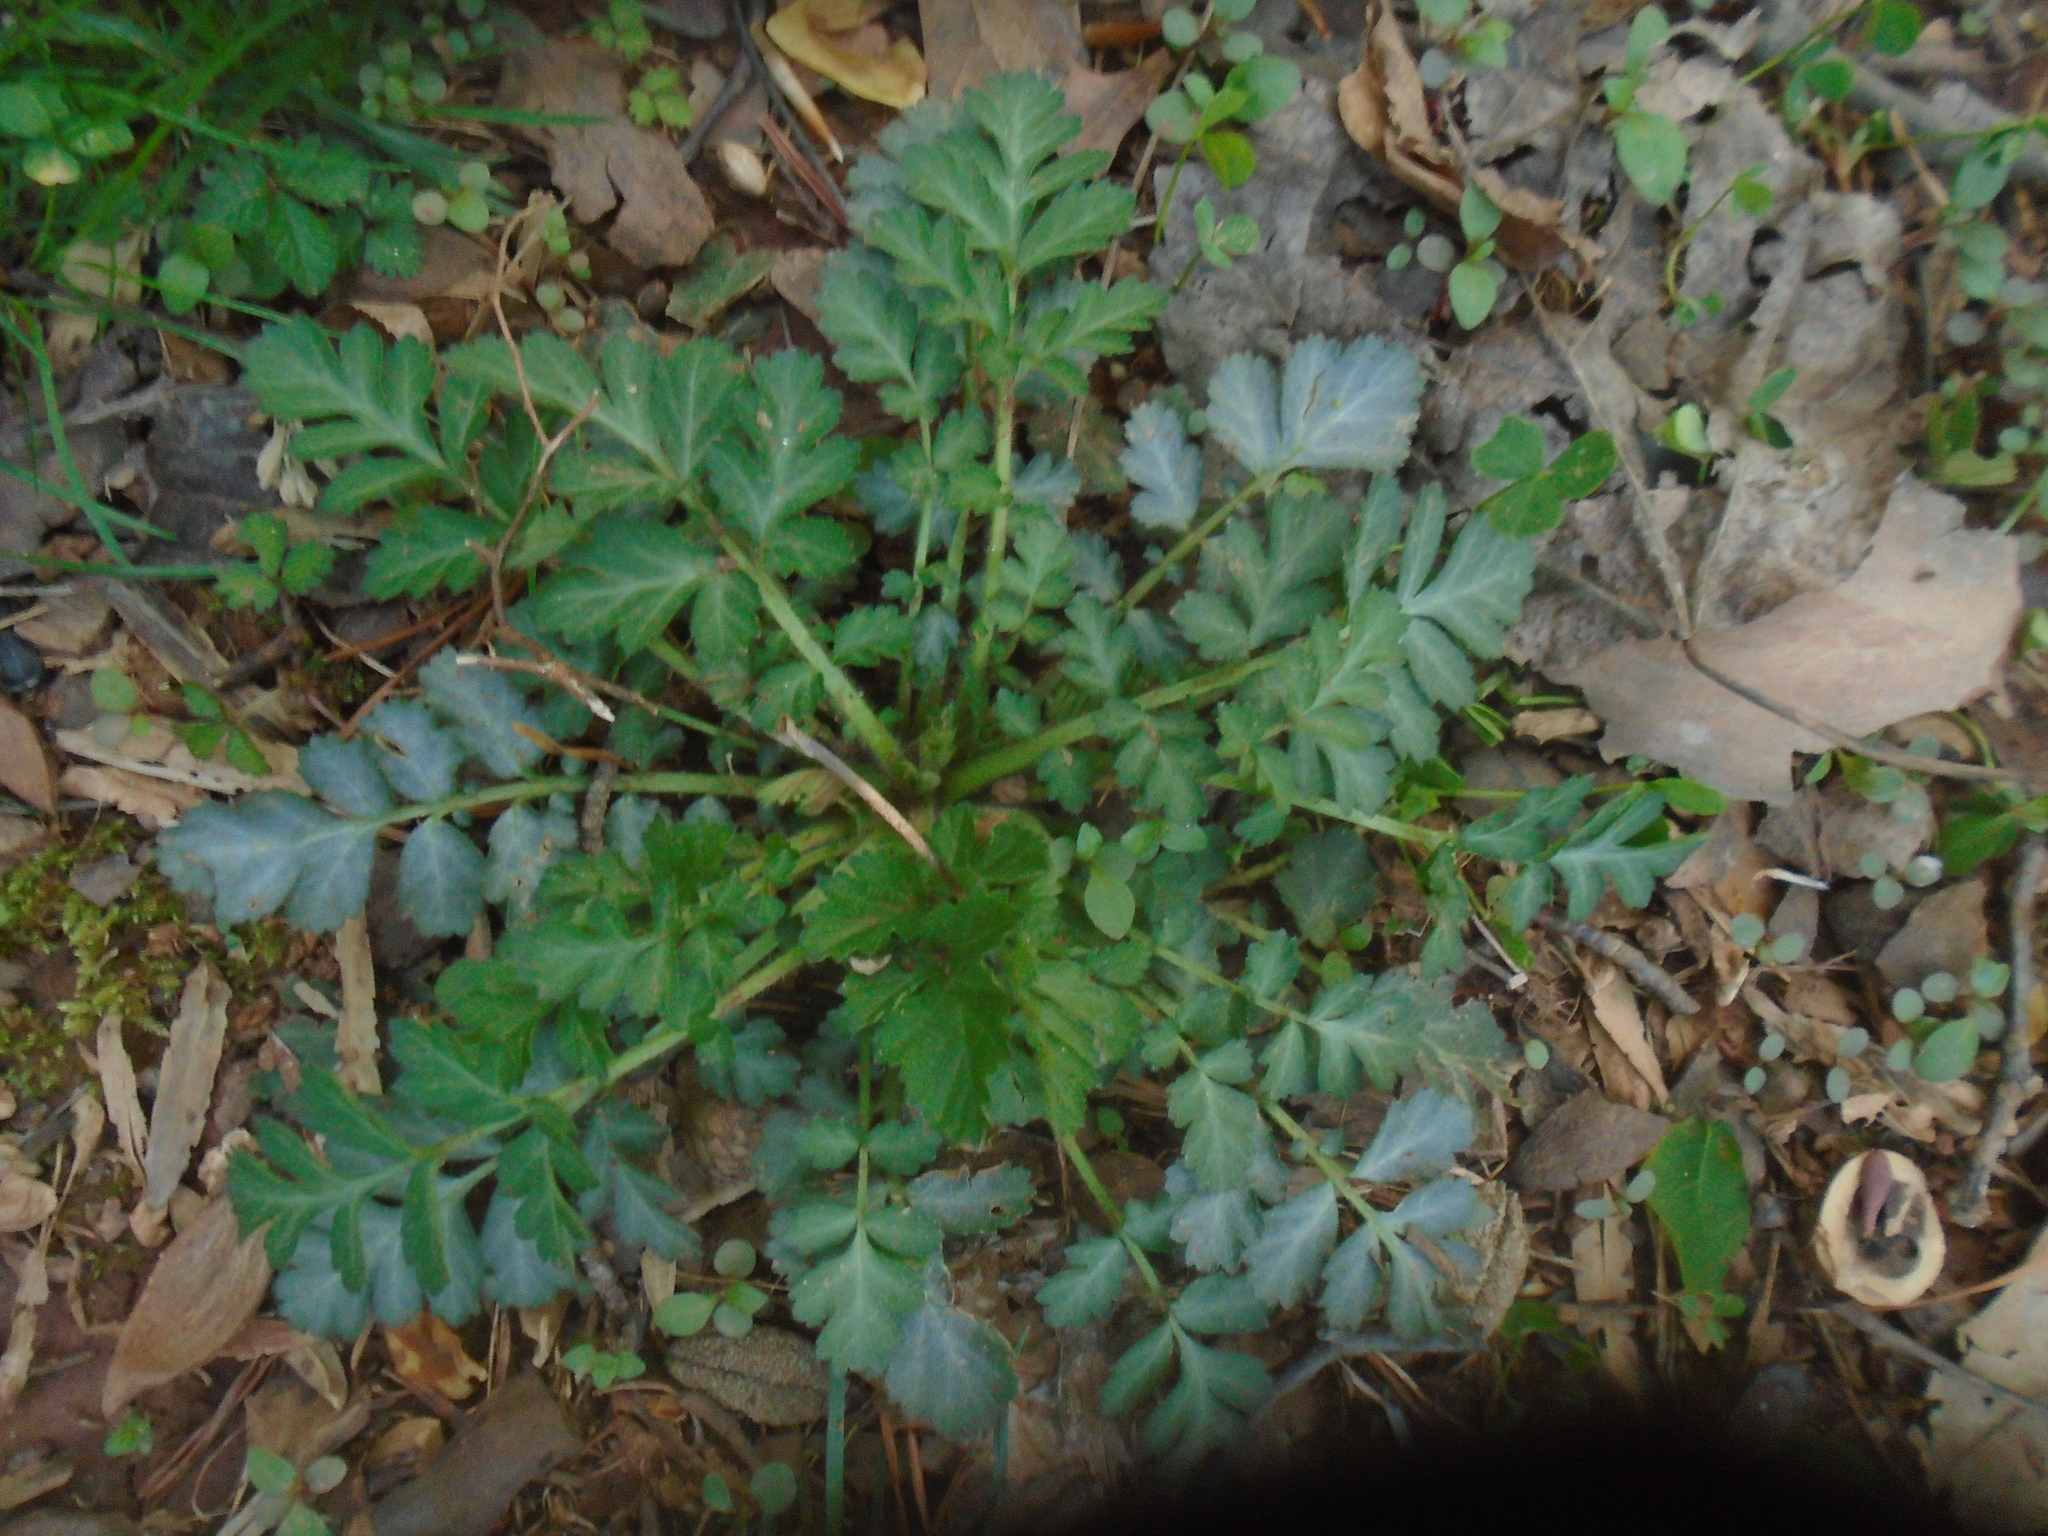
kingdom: Plantae
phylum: Tracheophyta
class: Magnoliopsida
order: Rosales
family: Rosaceae
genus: Geum
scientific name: Geum canadense
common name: White avens
